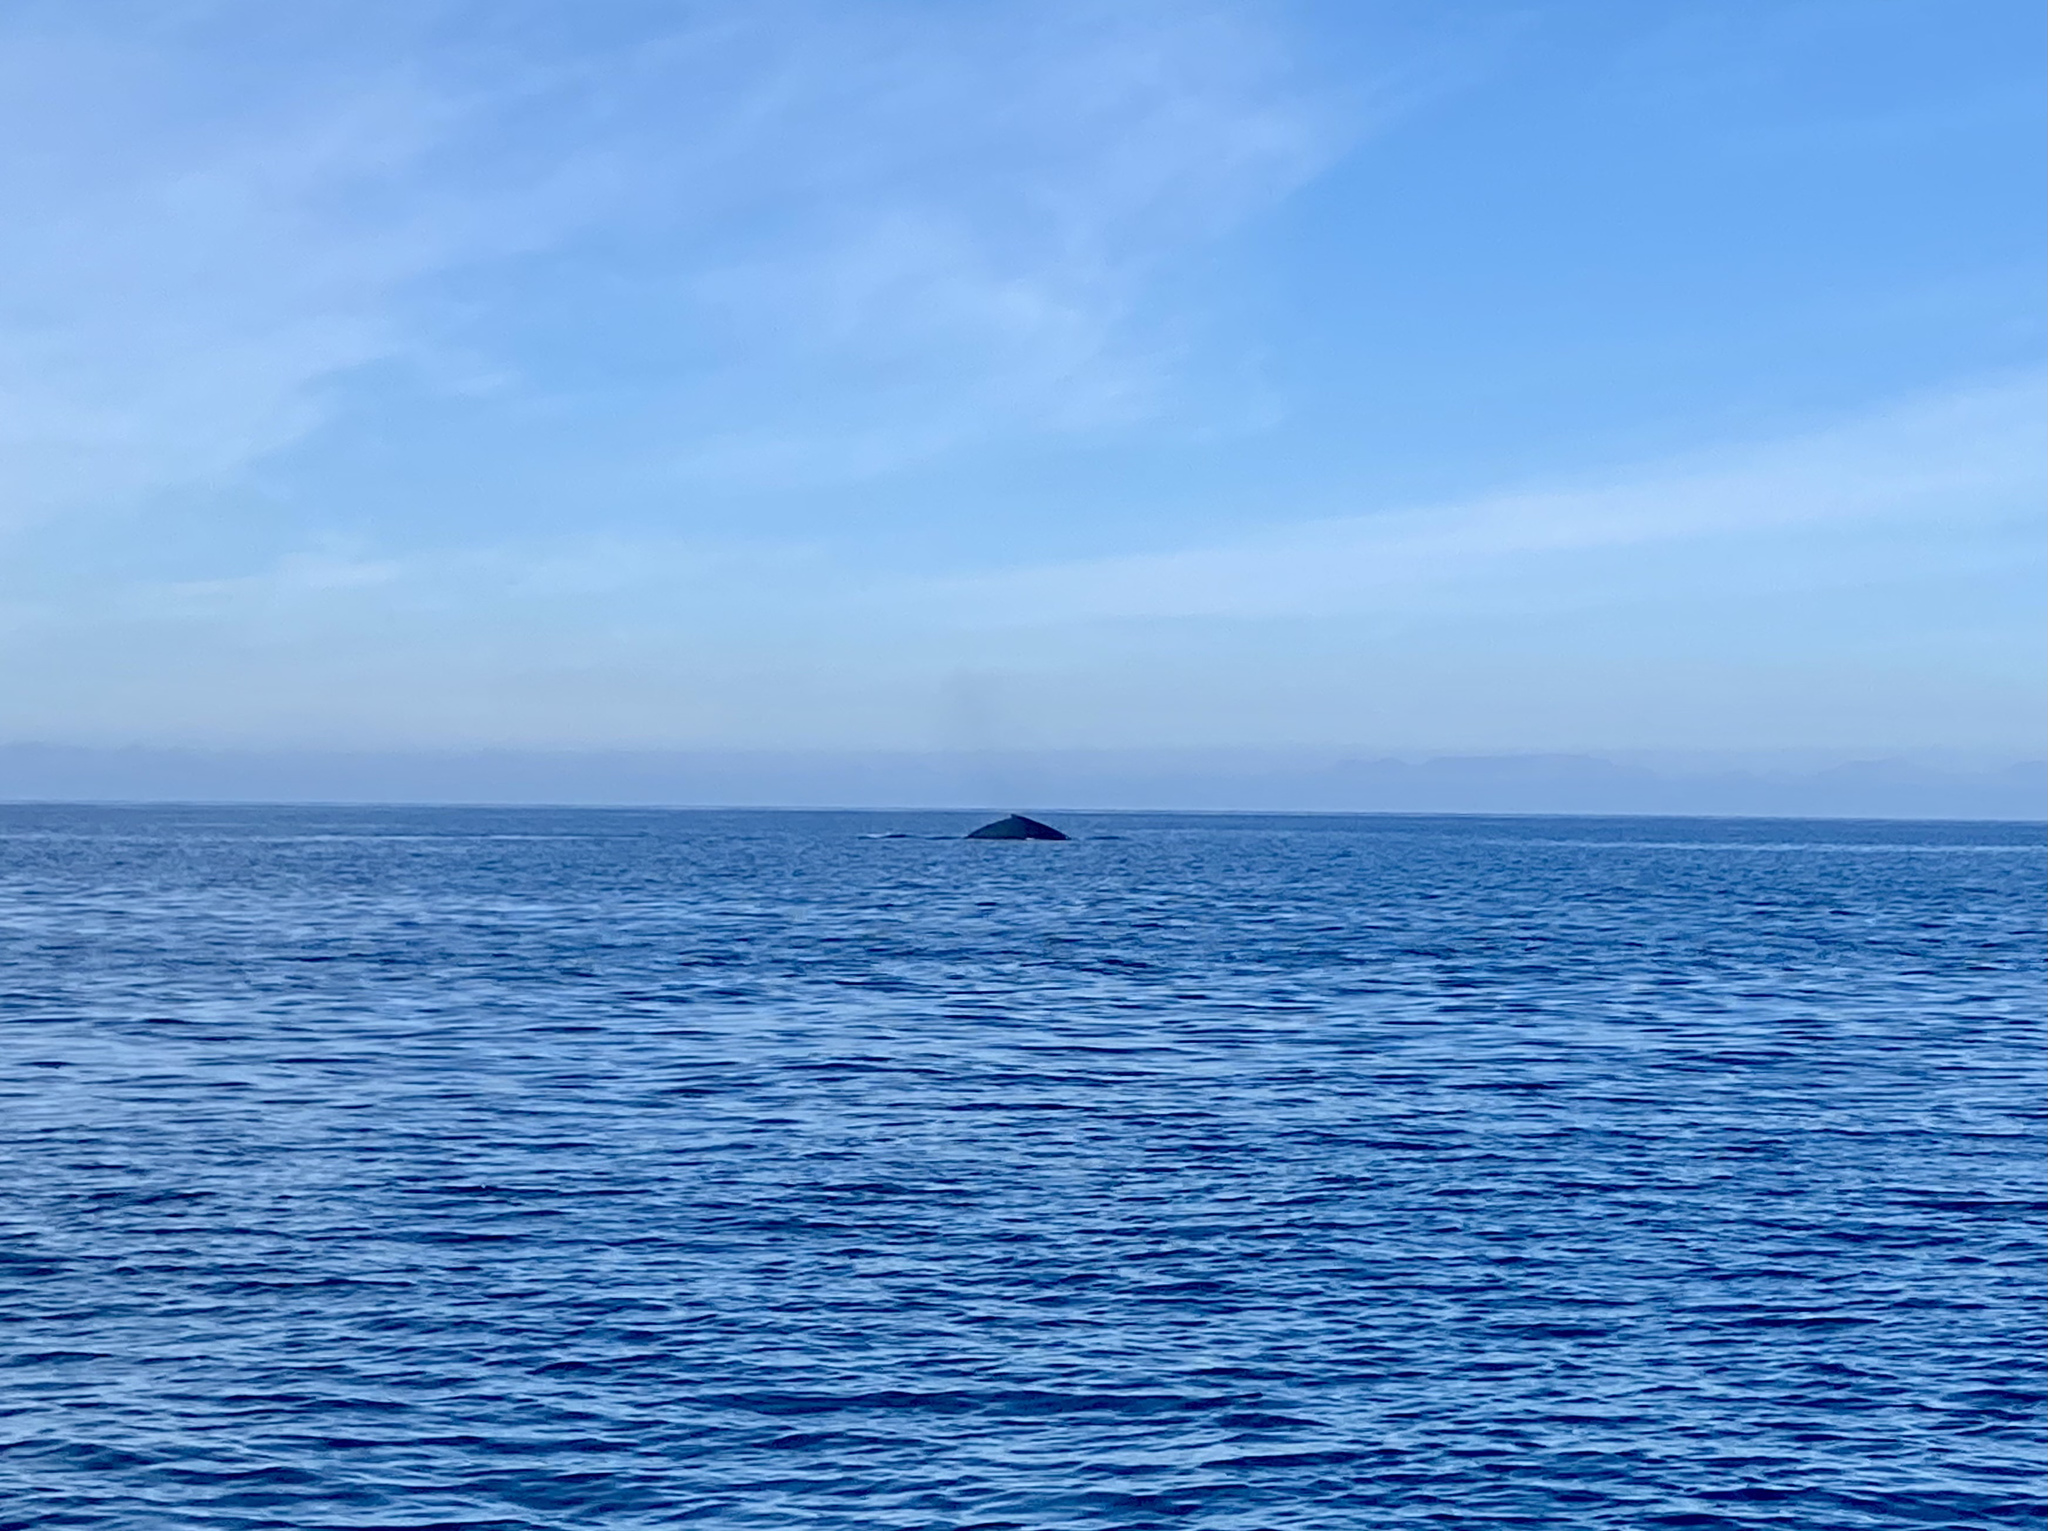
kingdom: Animalia
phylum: Chordata
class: Mammalia
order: Cetacea
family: Balaenopteridae
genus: Megaptera
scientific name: Megaptera novaeangliae
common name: Humpback whale
